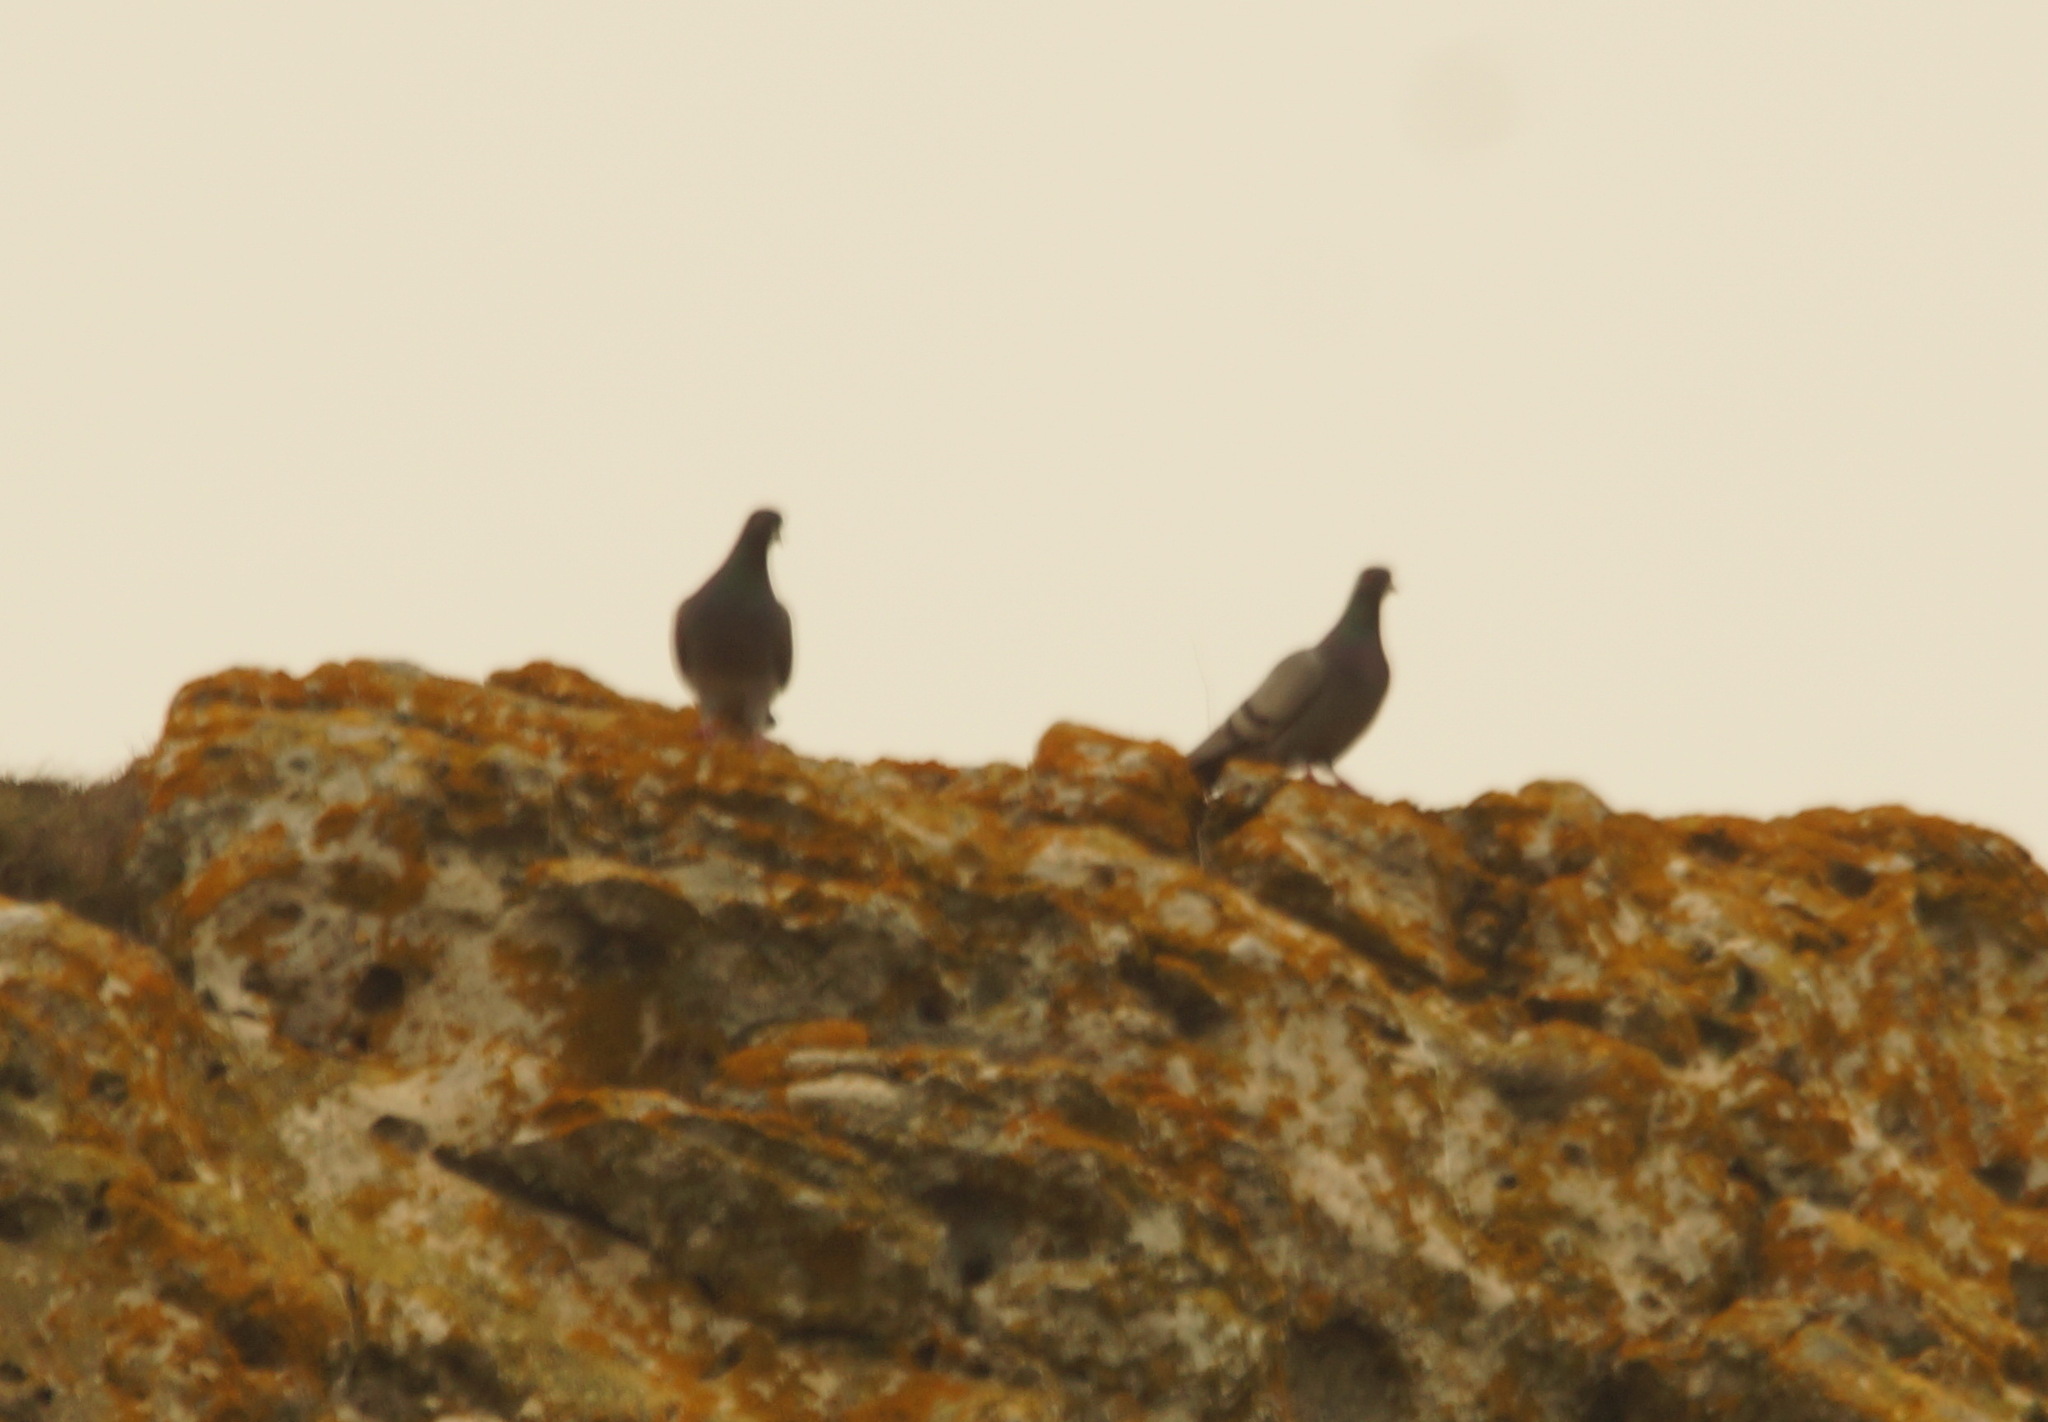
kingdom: Animalia
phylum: Chordata
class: Aves
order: Columbiformes
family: Columbidae
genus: Columba
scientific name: Columba livia
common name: Rock pigeon
